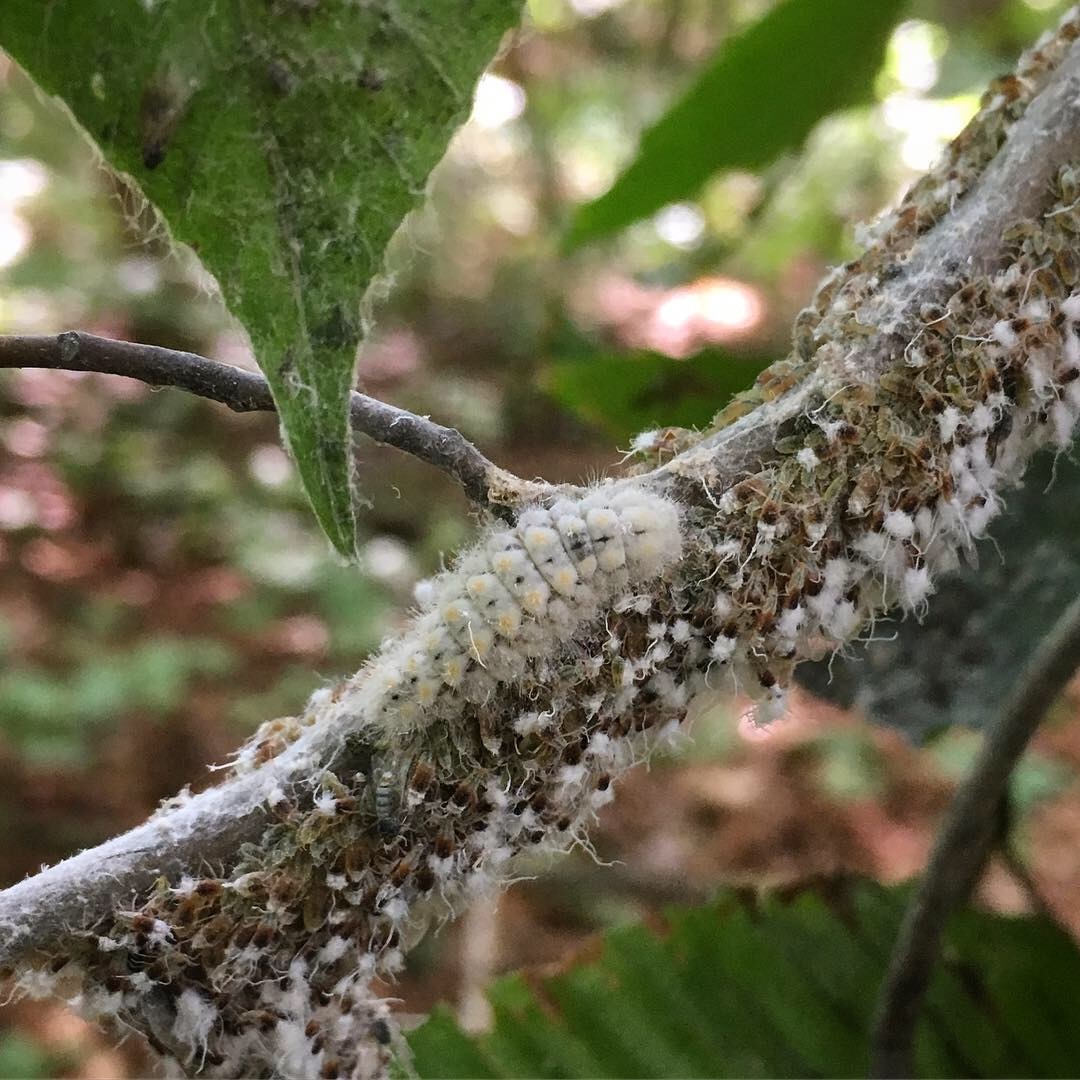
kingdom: Animalia
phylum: Arthropoda
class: Insecta
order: Lepidoptera
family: Lycaenidae
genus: Feniseca
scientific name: Feniseca tarquinius
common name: Harvester
